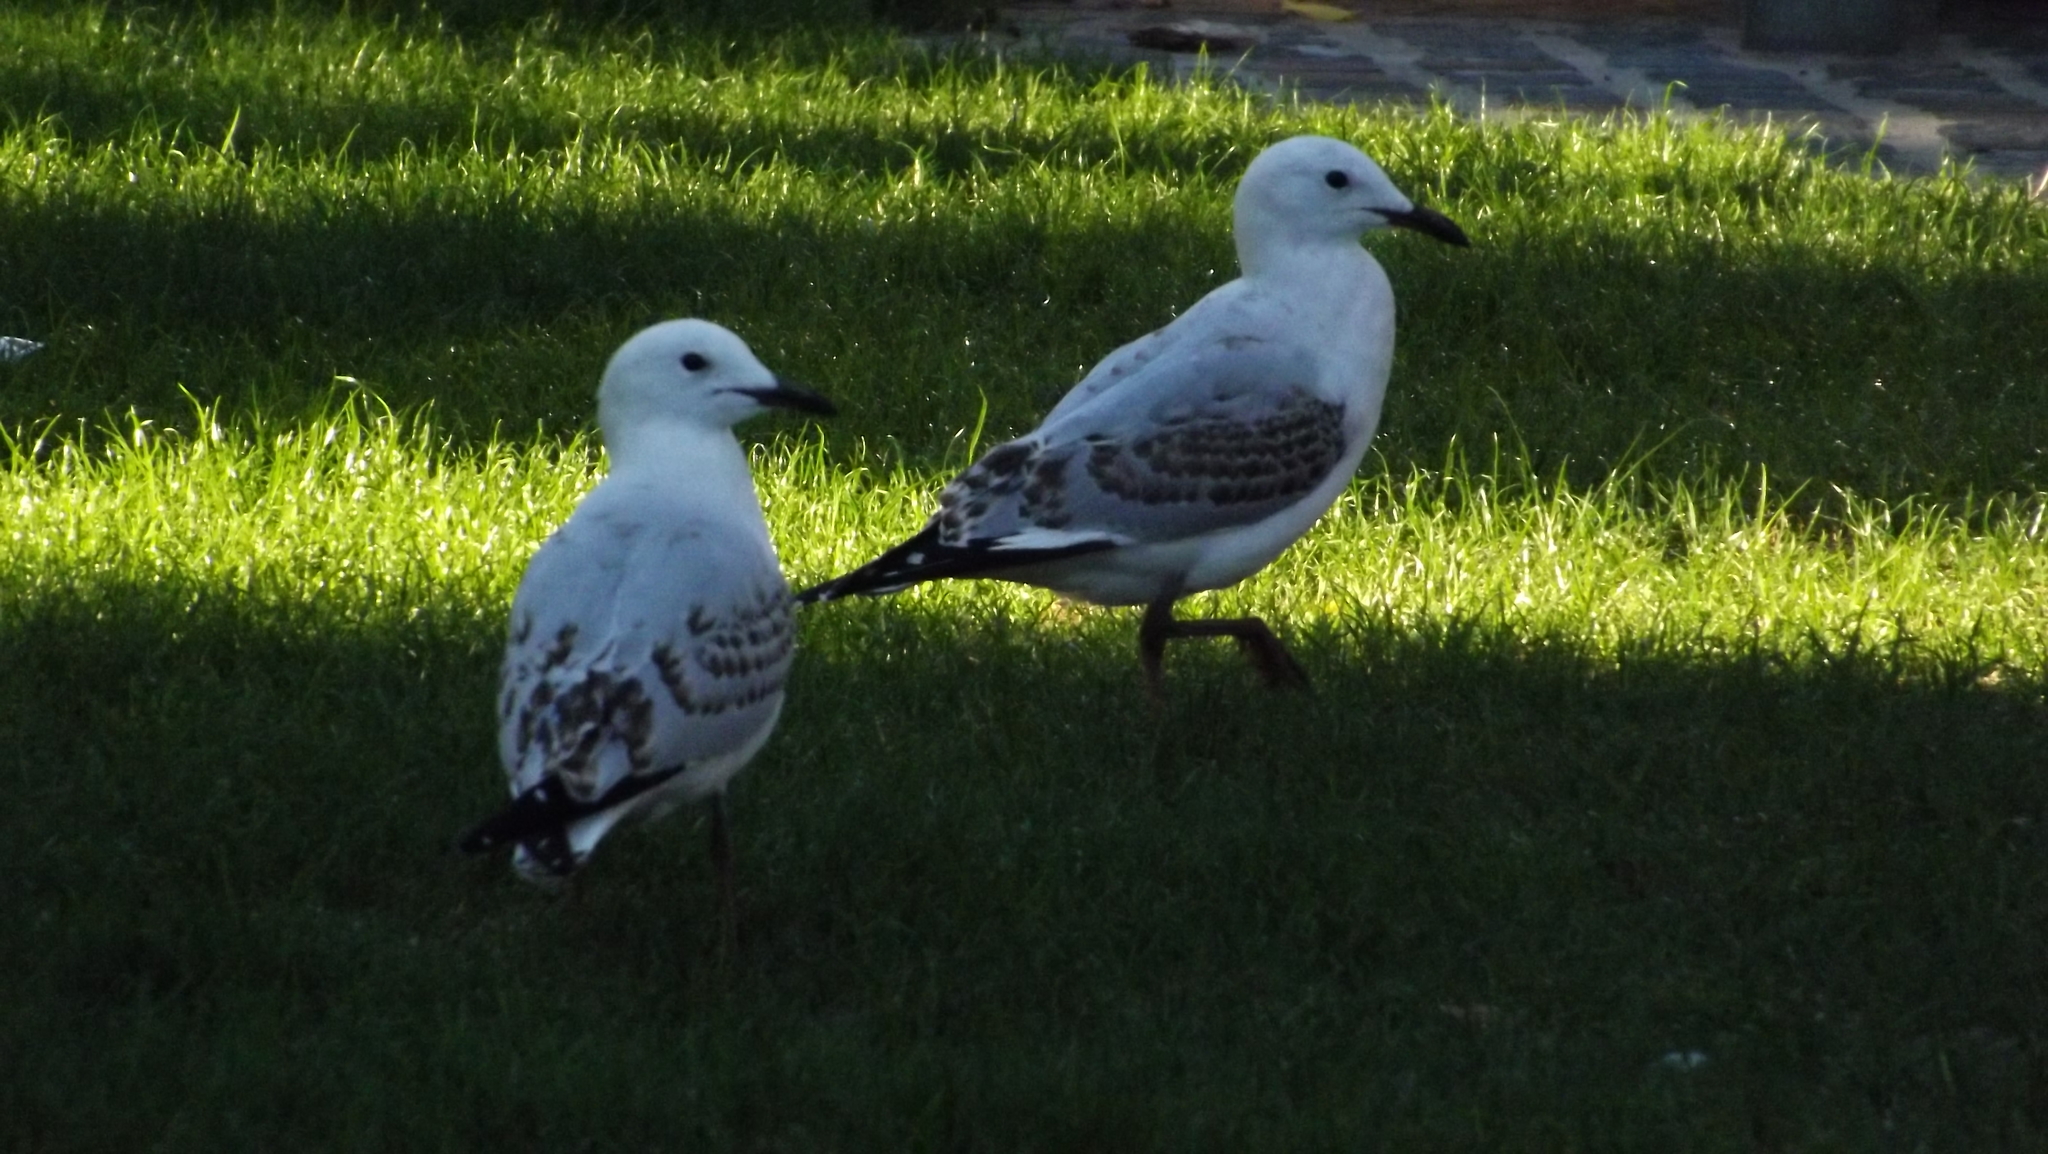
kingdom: Animalia
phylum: Chordata
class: Aves
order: Charadriiformes
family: Laridae
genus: Chroicocephalus
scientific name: Chroicocephalus novaehollandiae
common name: Silver gull
